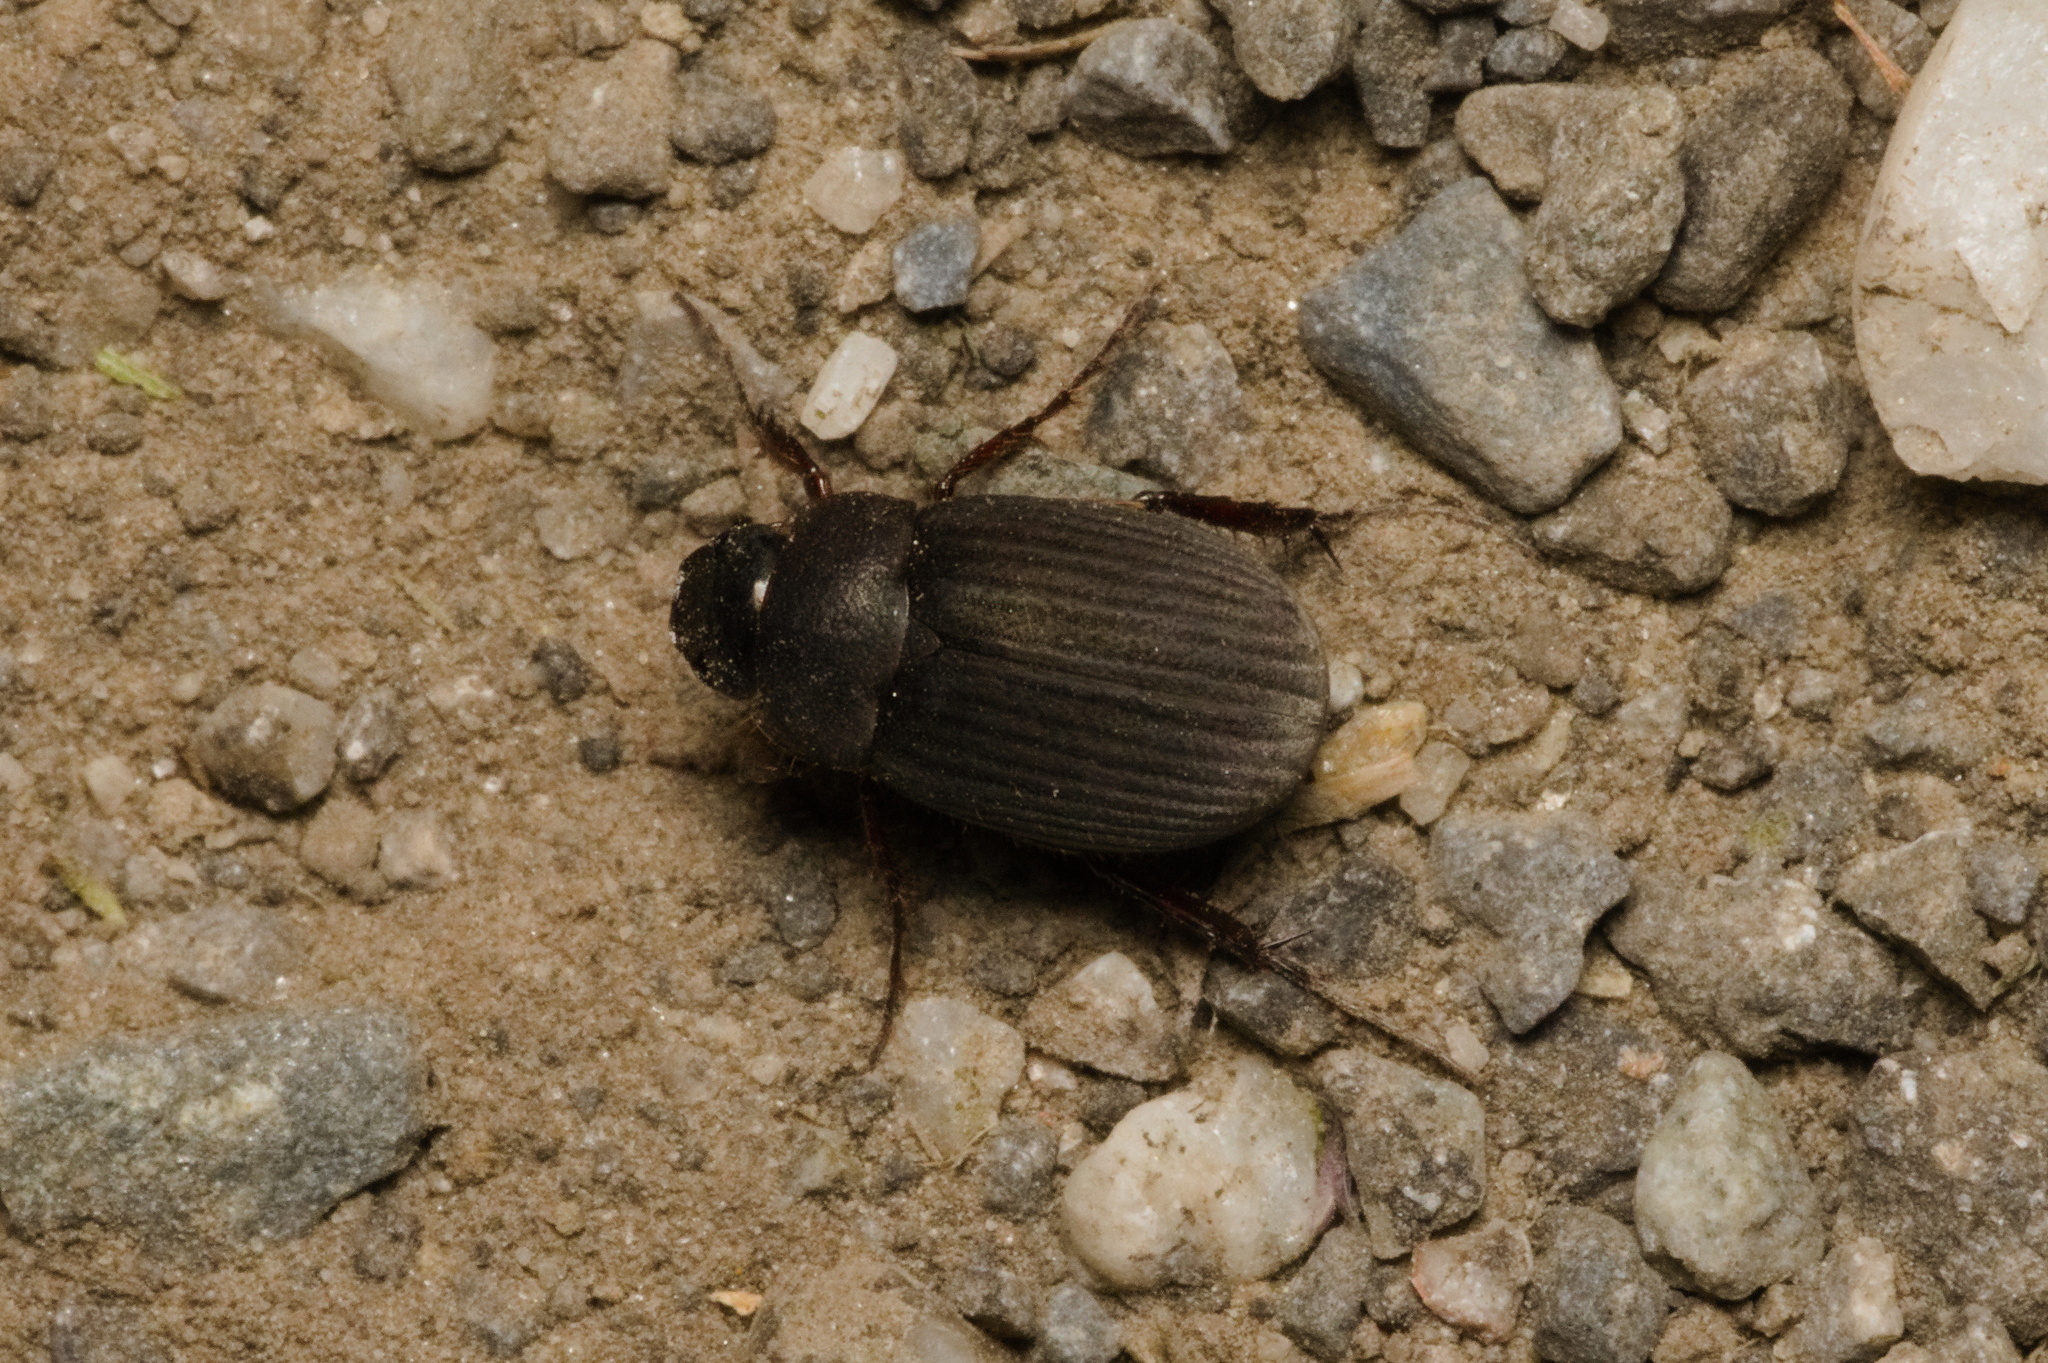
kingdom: Animalia
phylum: Arthropoda
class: Insecta
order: Coleoptera
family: Scarabaeidae
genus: Maladera
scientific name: Maladera holosericea
